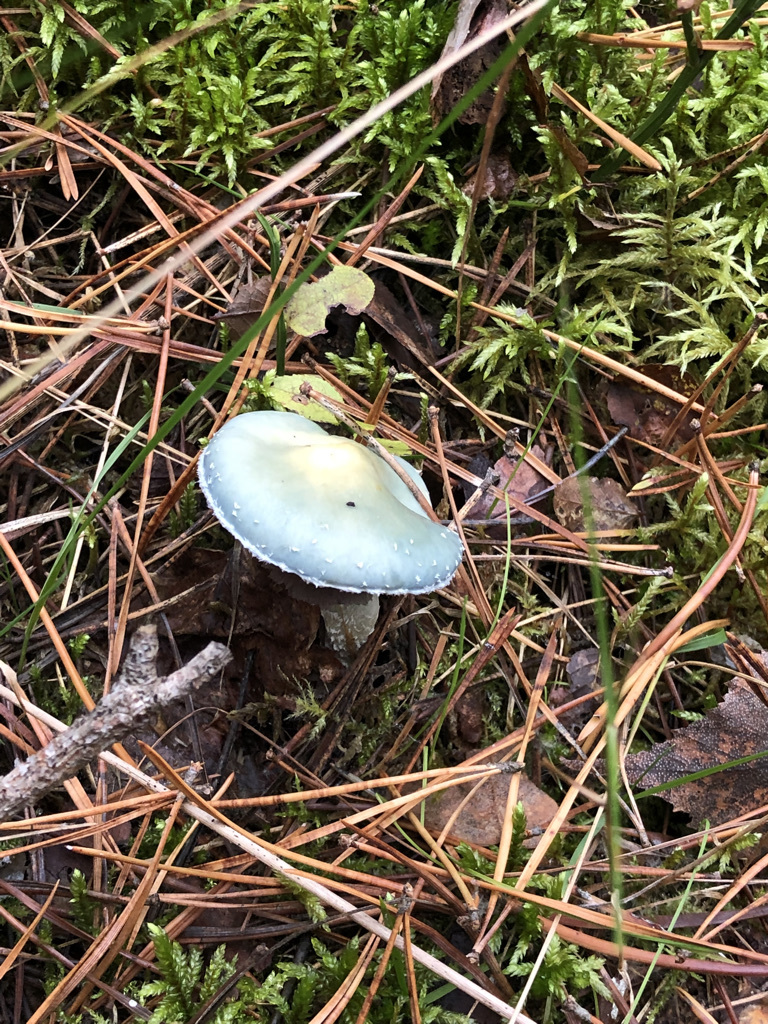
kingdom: Fungi
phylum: Basidiomycota
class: Agaricomycetes
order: Agaricales
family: Strophariaceae
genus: Stropharia
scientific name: Stropharia aeruginosa
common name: Verdigris roundhead
